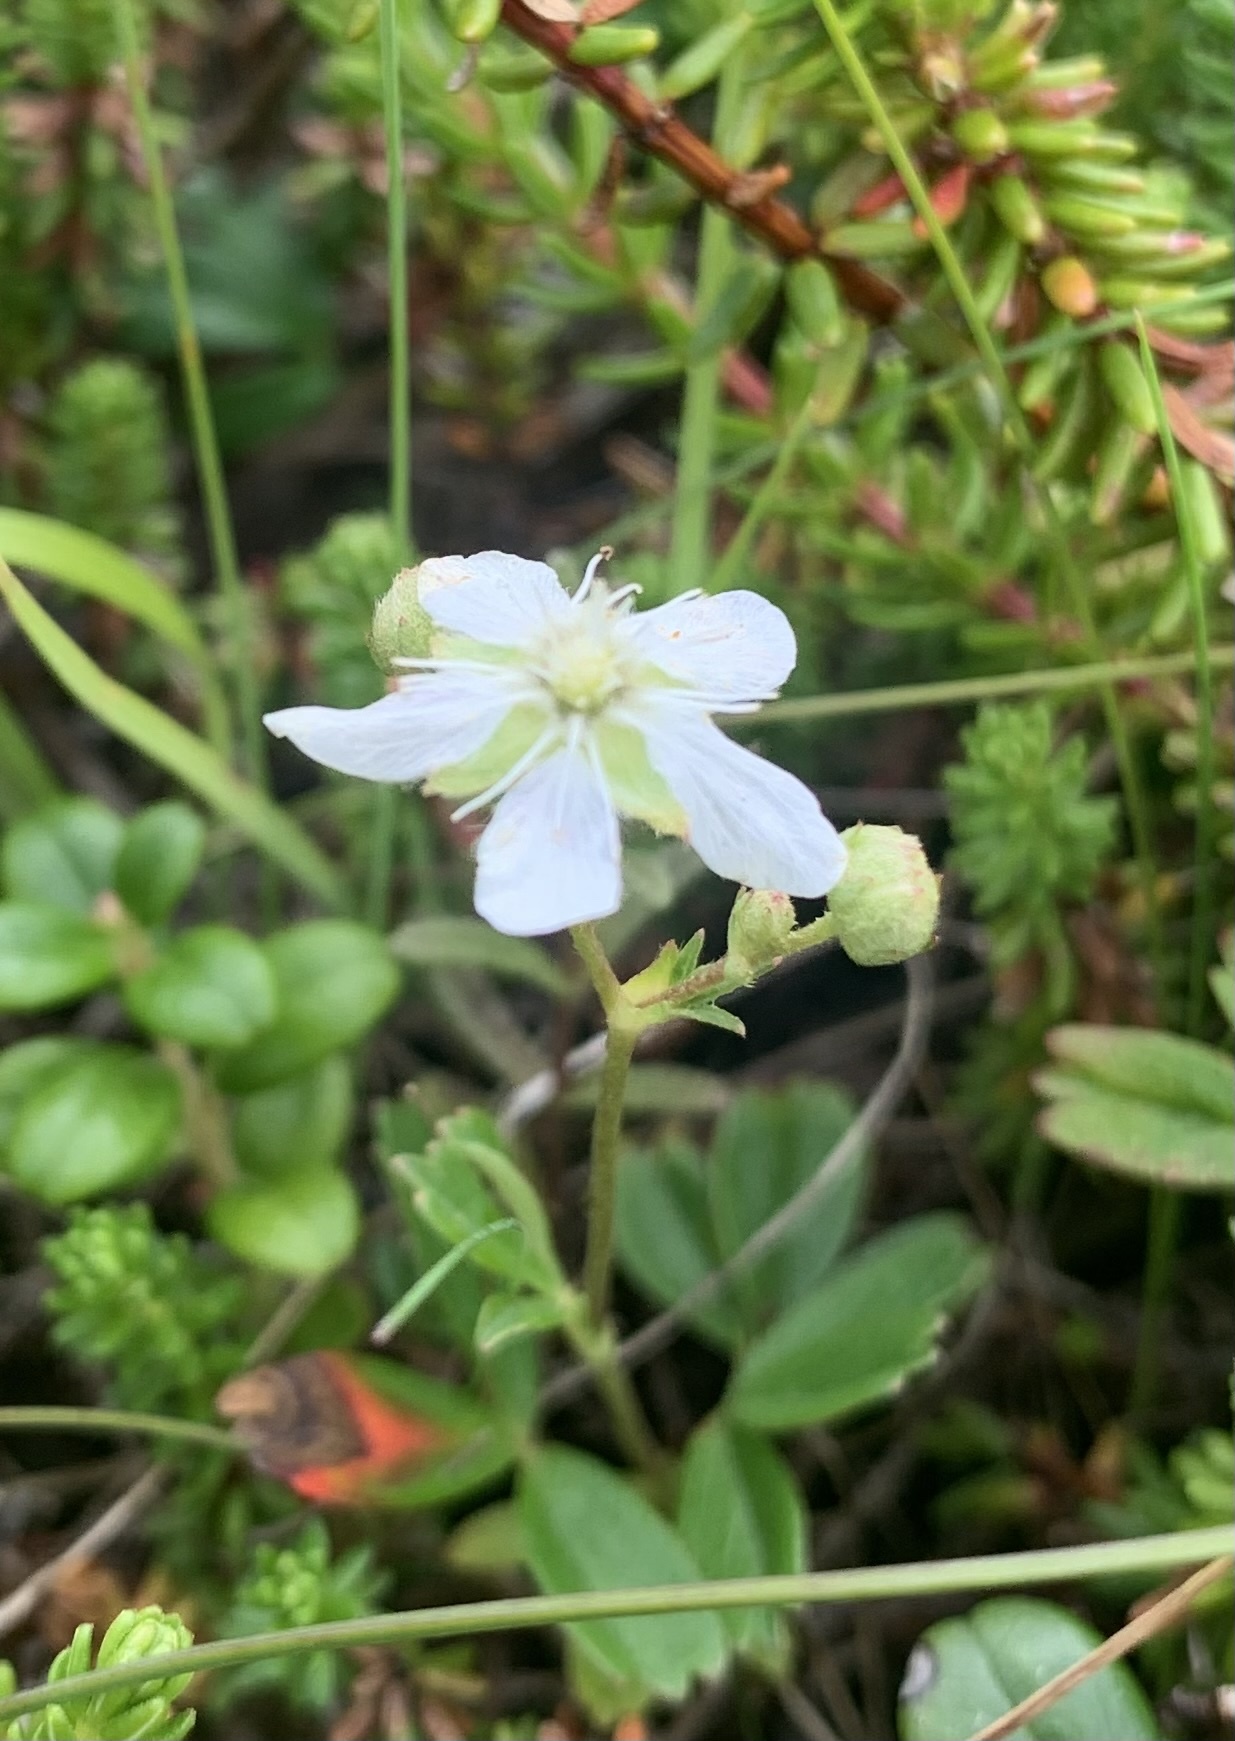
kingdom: Plantae
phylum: Tracheophyta
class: Magnoliopsida
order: Rosales
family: Rosaceae
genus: Sibbaldia
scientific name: Sibbaldia tridentata
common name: Three-toothed cinquefoil
